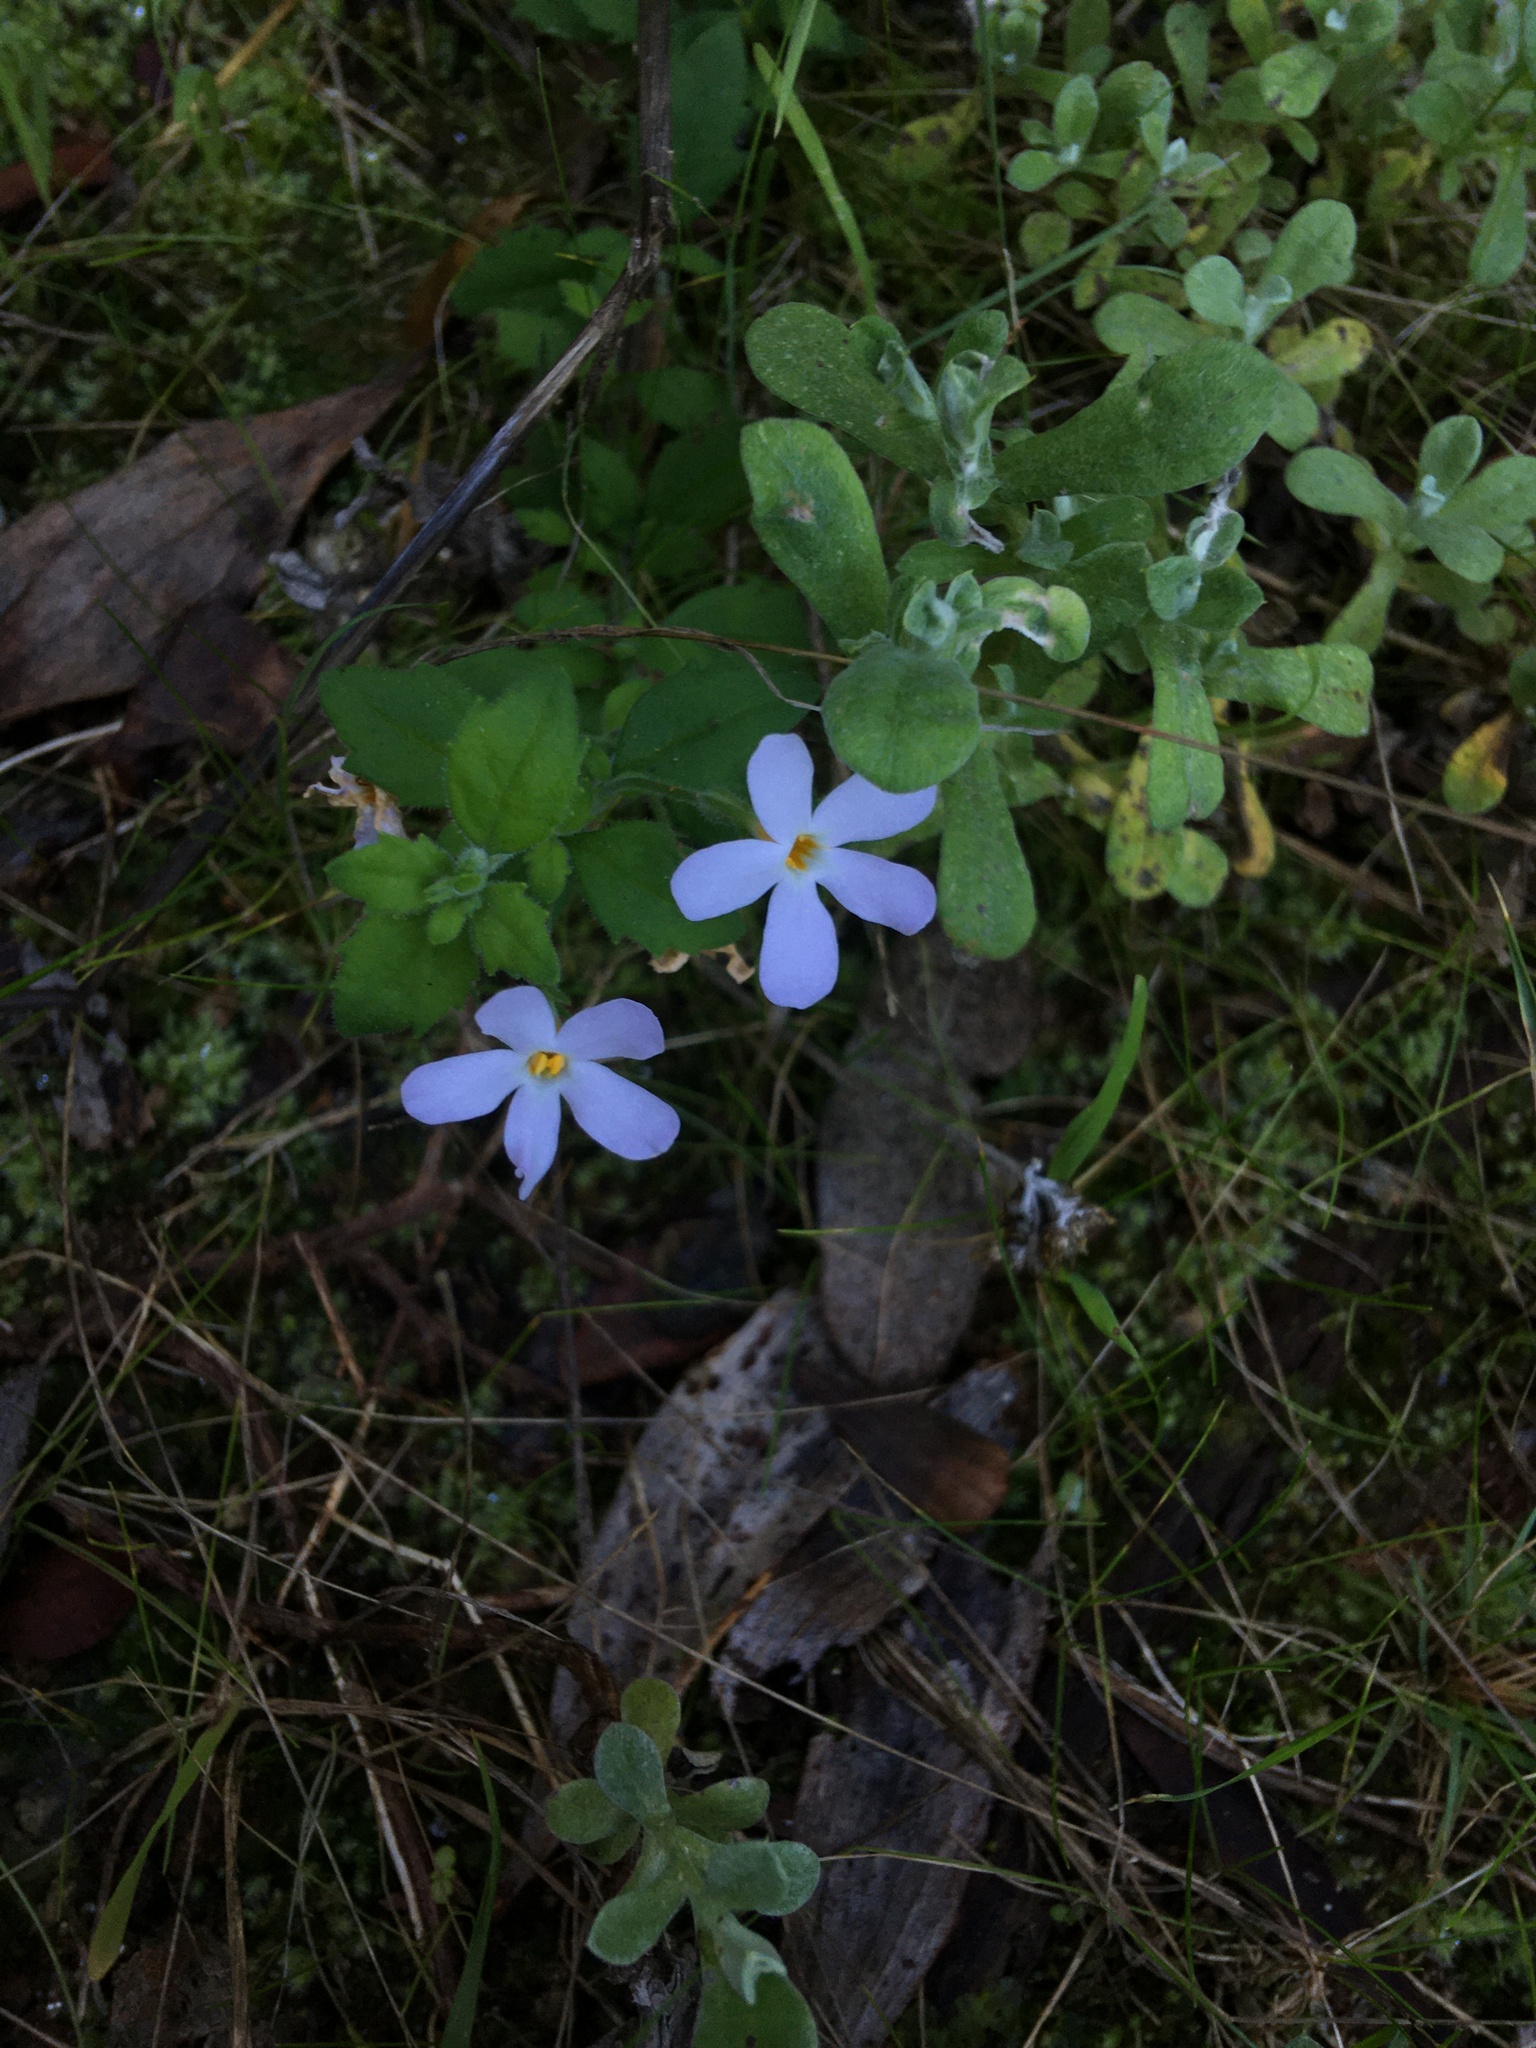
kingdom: Plantae
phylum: Tracheophyta
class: Magnoliopsida
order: Lamiales
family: Scrophulariaceae
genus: Chaenostoma
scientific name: Chaenostoma hispidum
